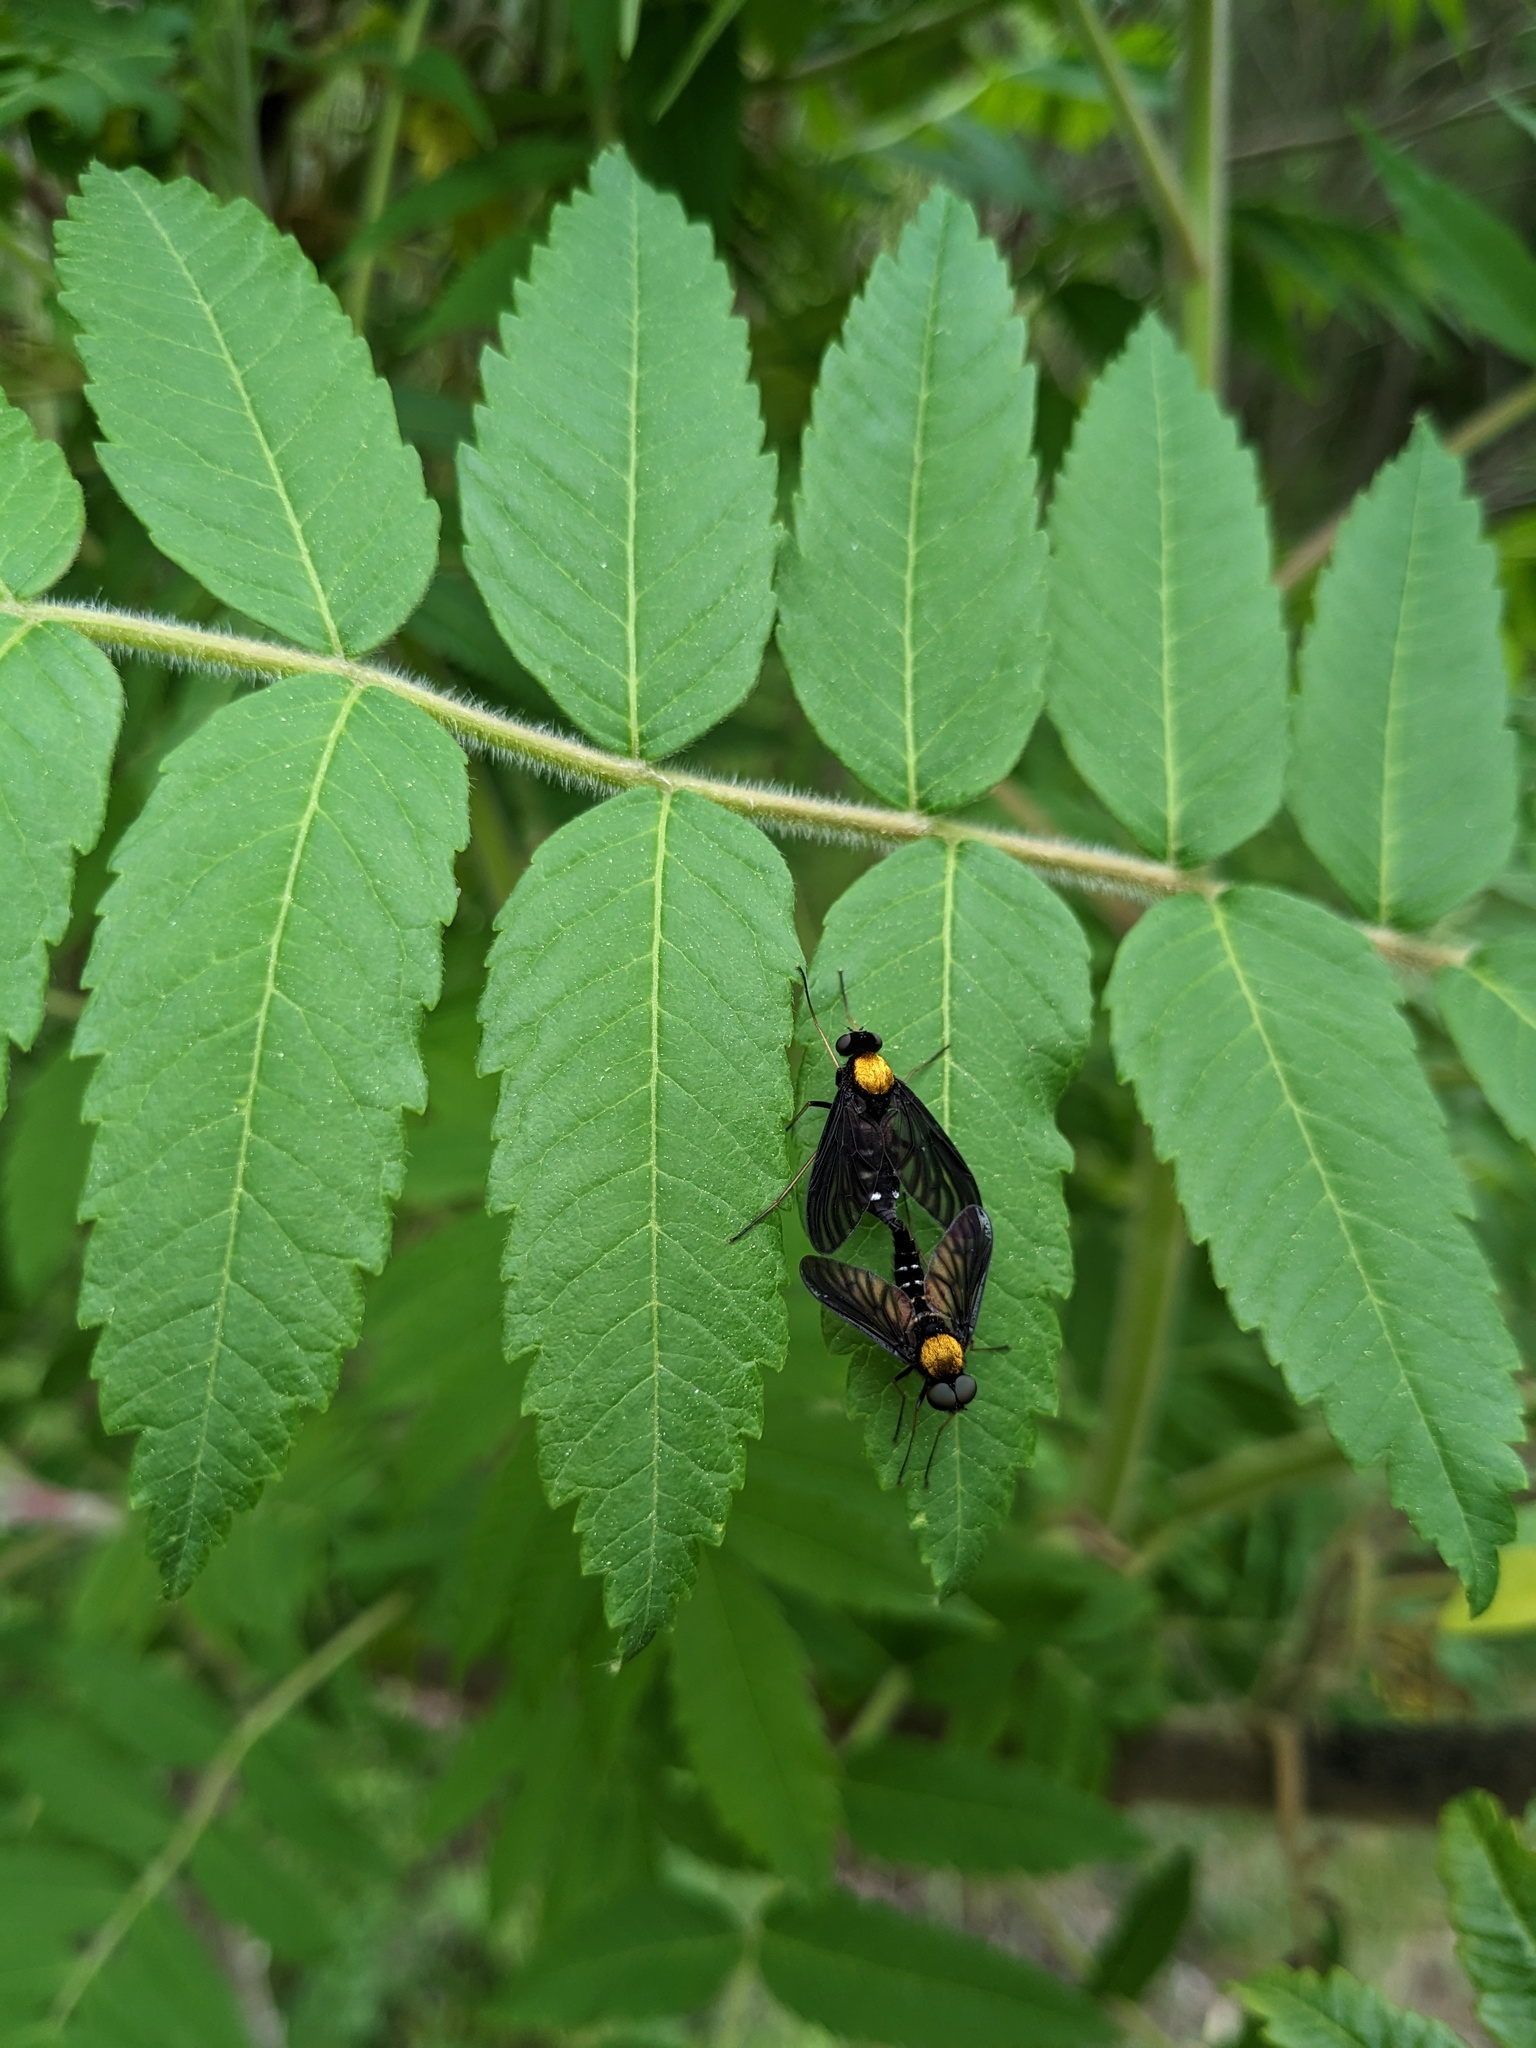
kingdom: Animalia
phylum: Arthropoda
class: Insecta
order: Diptera
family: Rhagionidae
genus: Chrysopilus
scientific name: Chrysopilus thoracicus
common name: Golden-backed snipe fly
